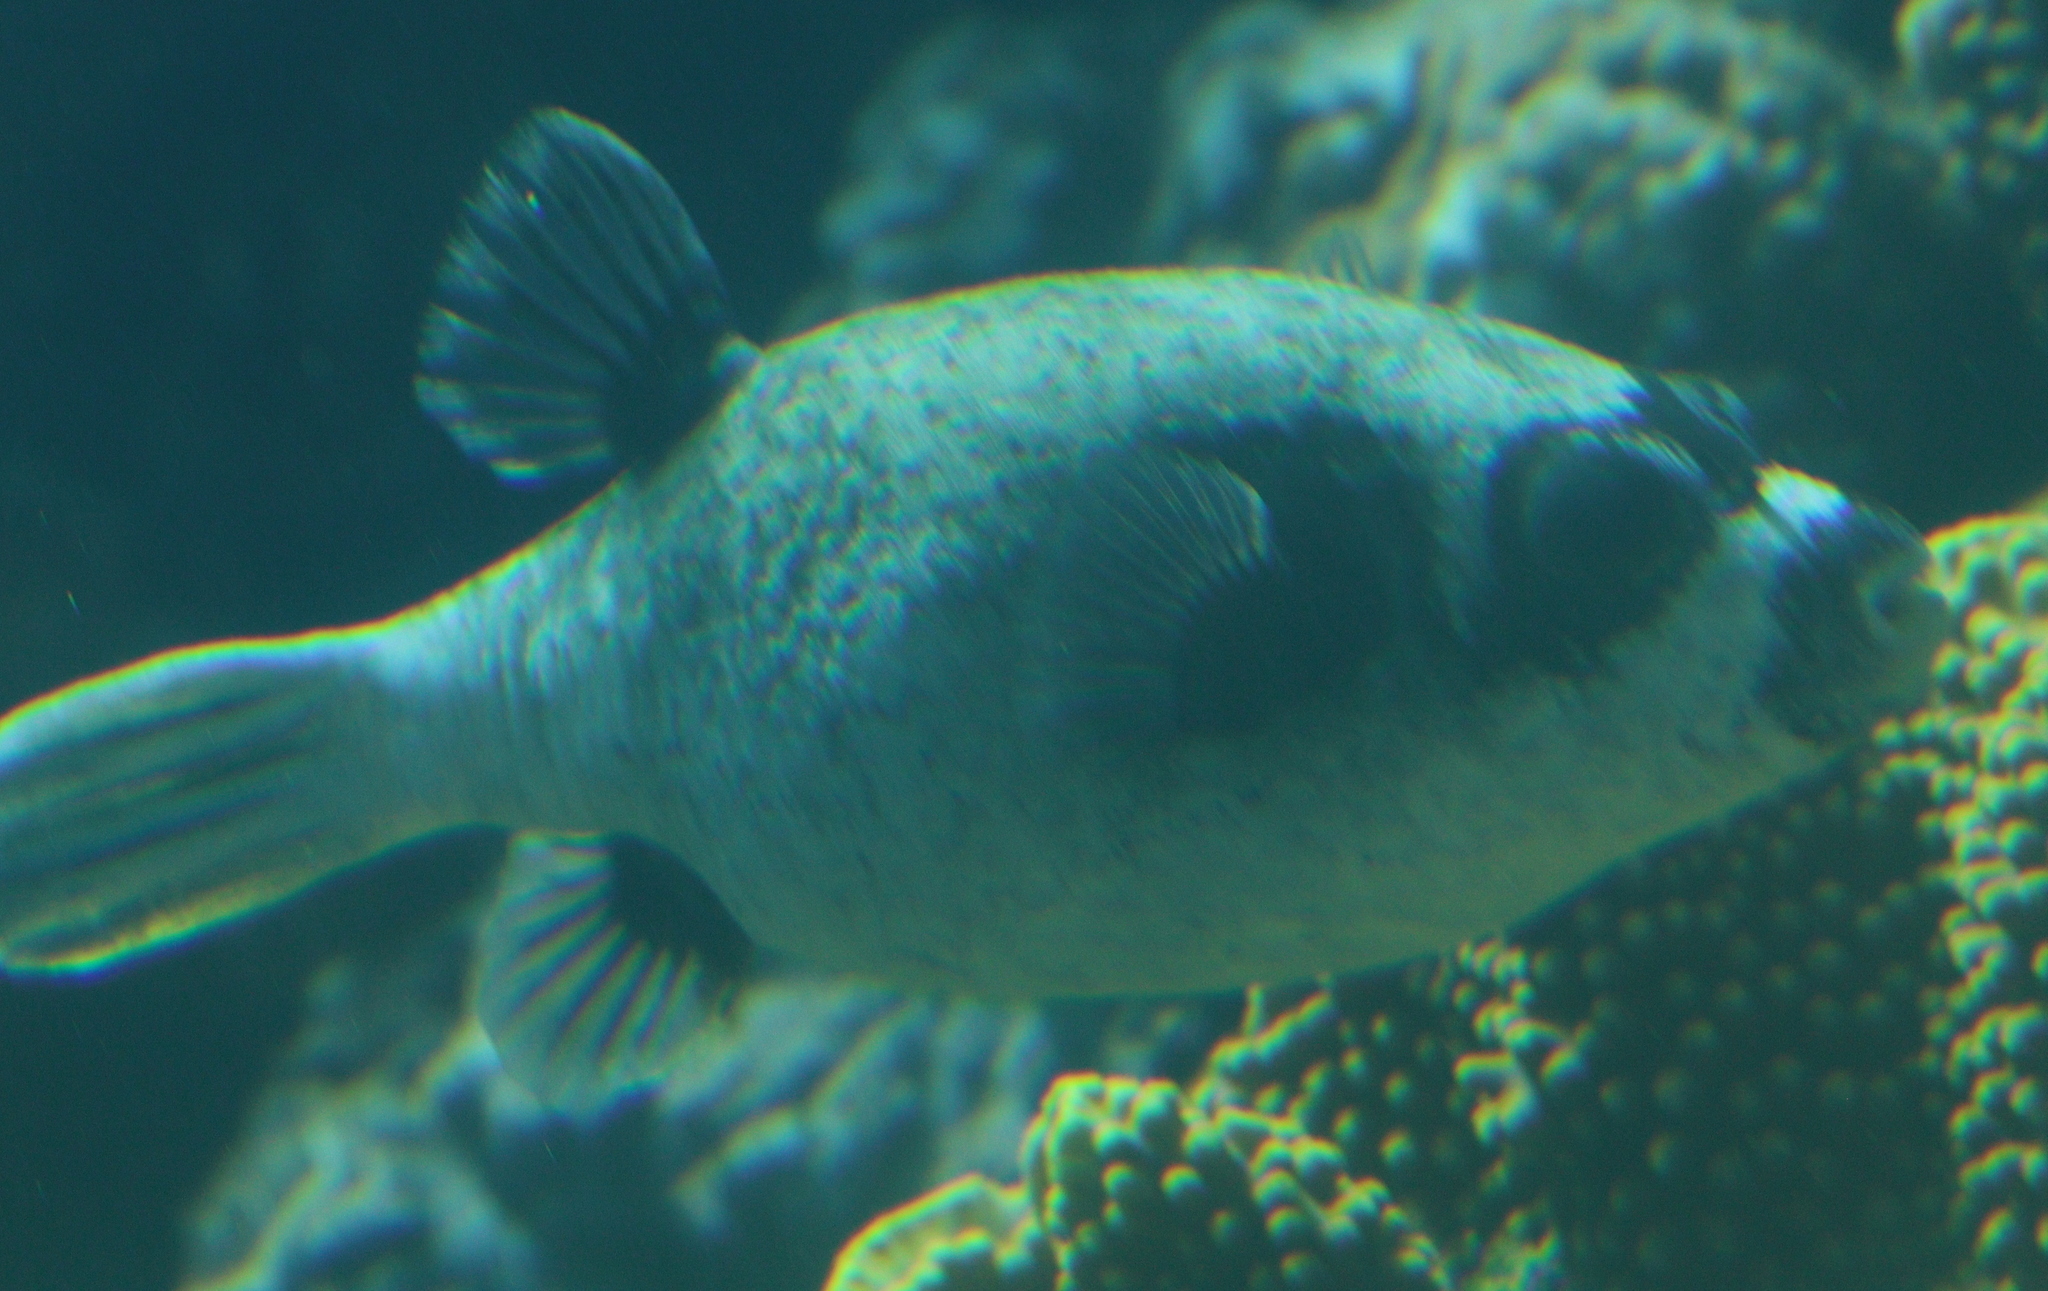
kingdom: Animalia
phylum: Chordata
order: Tetraodontiformes
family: Tetraodontidae
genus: Arothron
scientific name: Arothron diadematus
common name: Masked puffer
